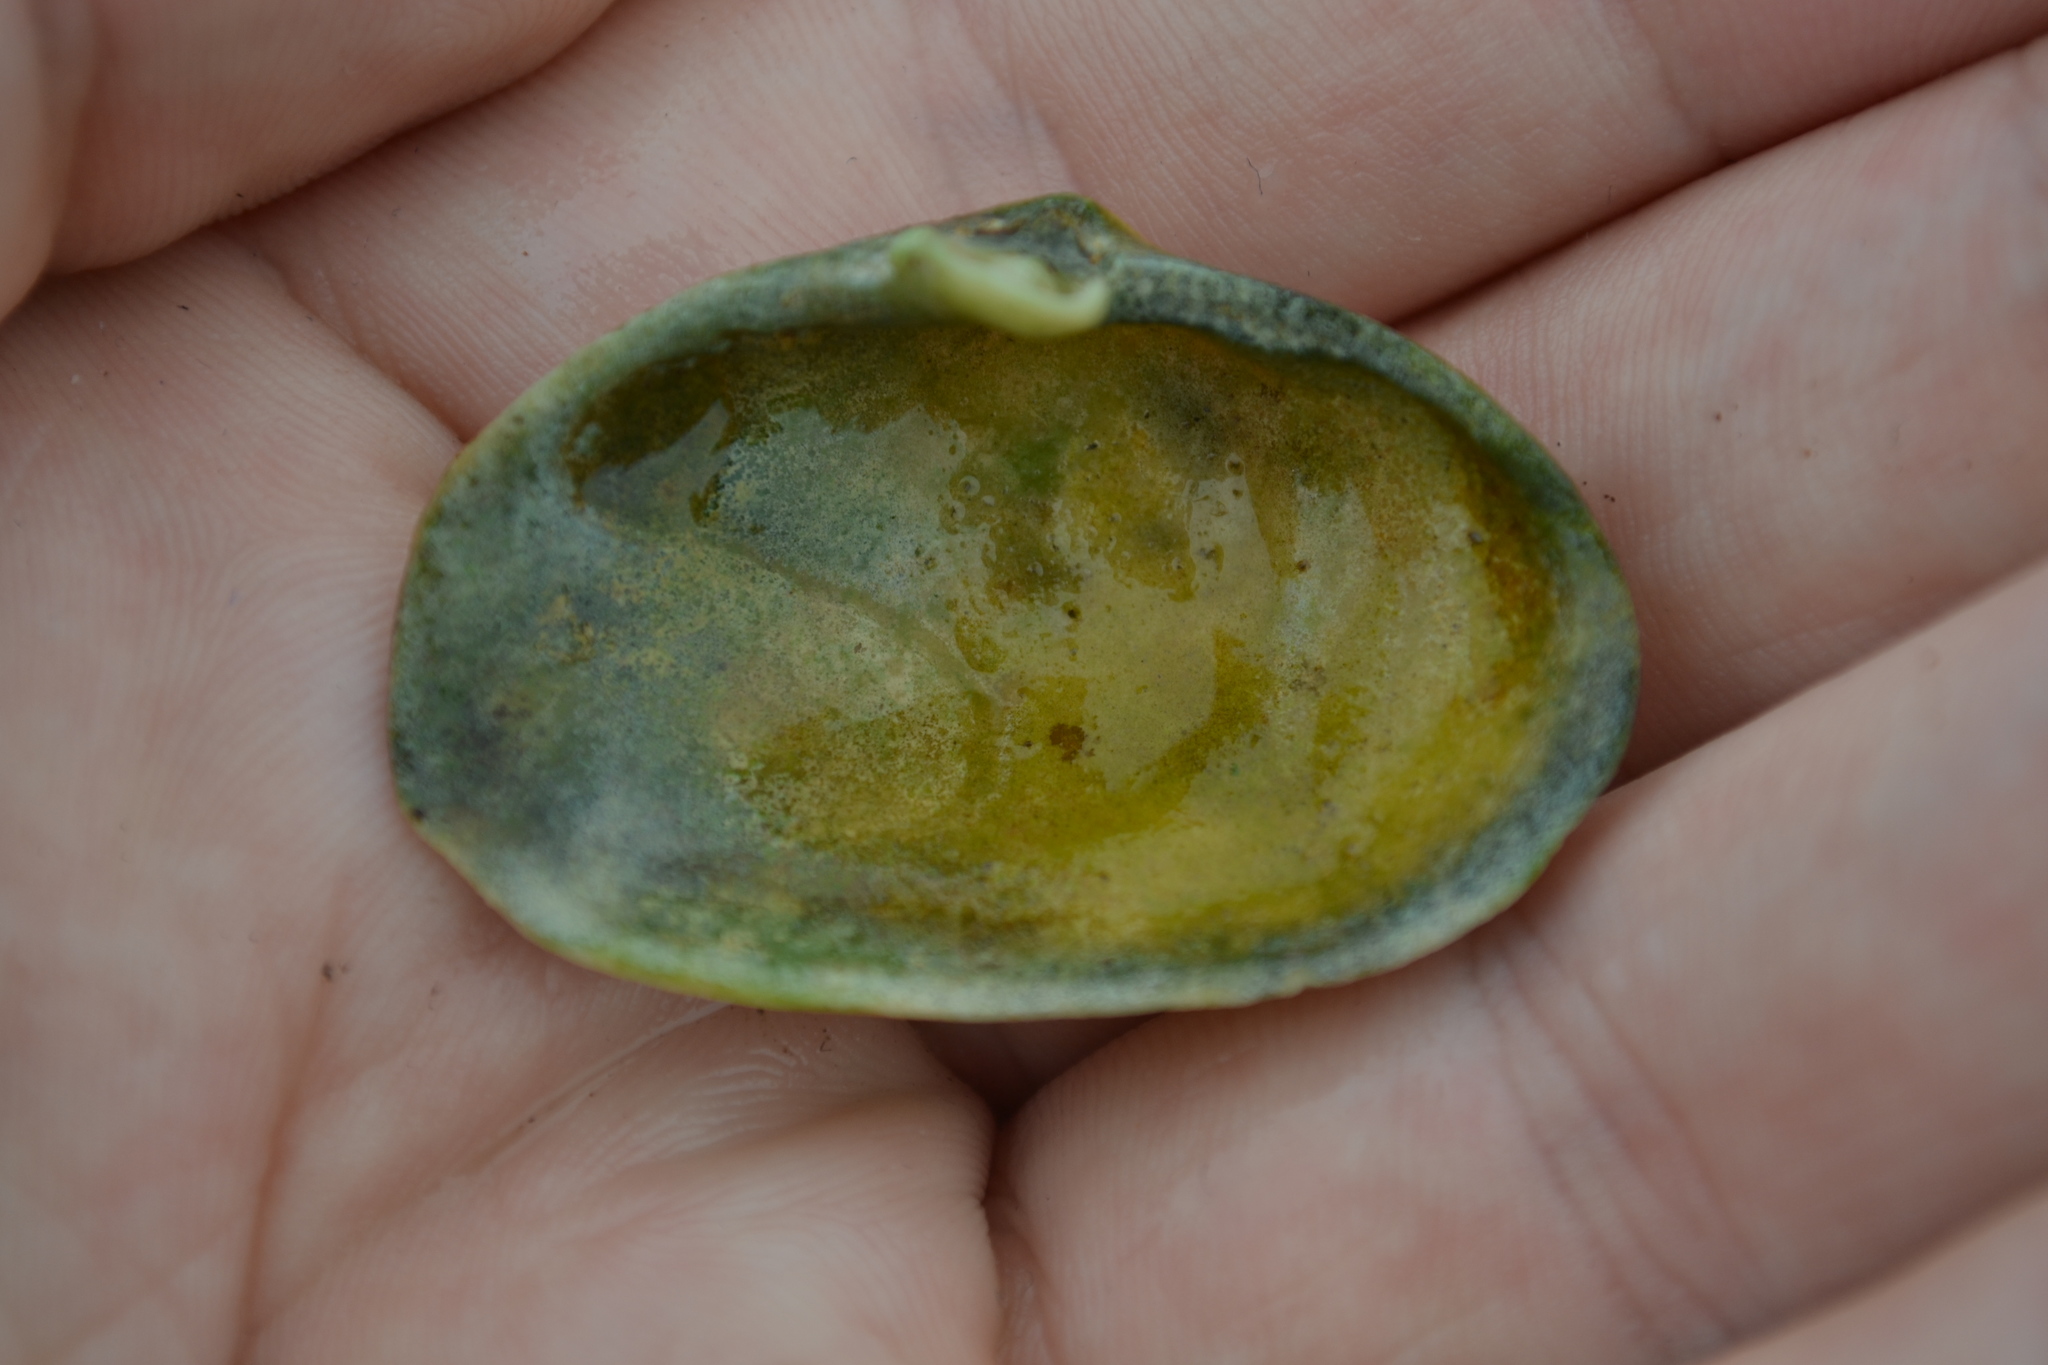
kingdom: Animalia
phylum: Mollusca
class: Bivalvia
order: Myida
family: Myidae
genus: Mya
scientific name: Mya arenaria
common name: Soft-shelled clam
